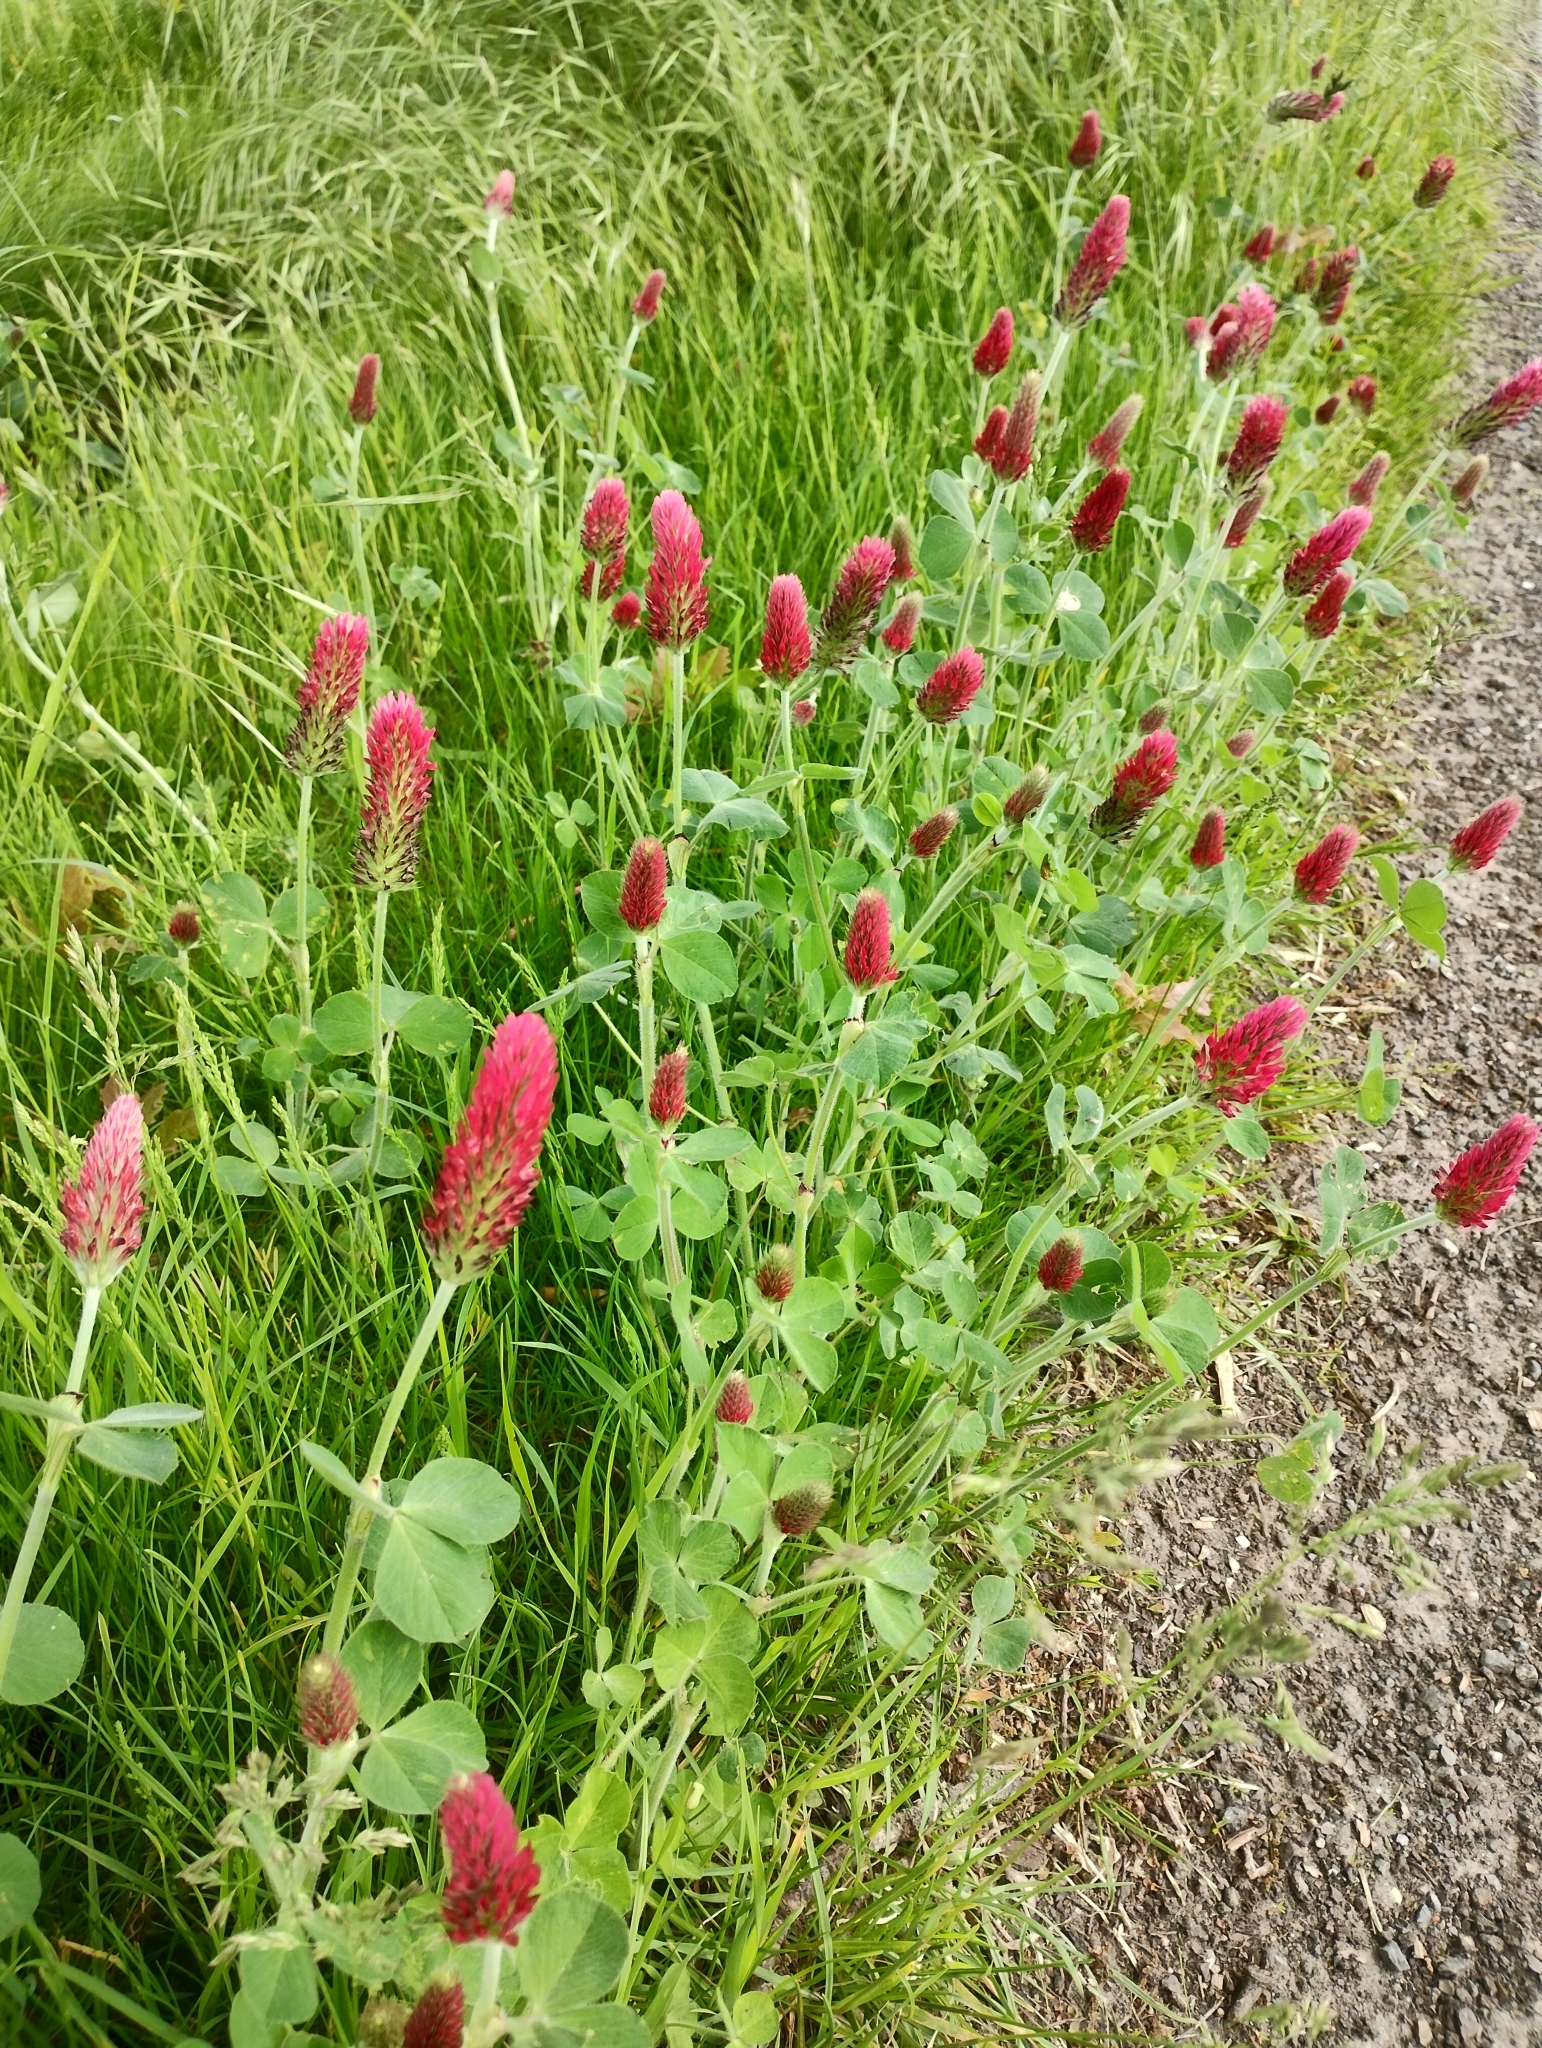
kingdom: Plantae
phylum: Tracheophyta
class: Magnoliopsida
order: Fabales
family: Fabaceae
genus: Trifolium
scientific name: Trifolium incarnatum
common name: Crimson clover
